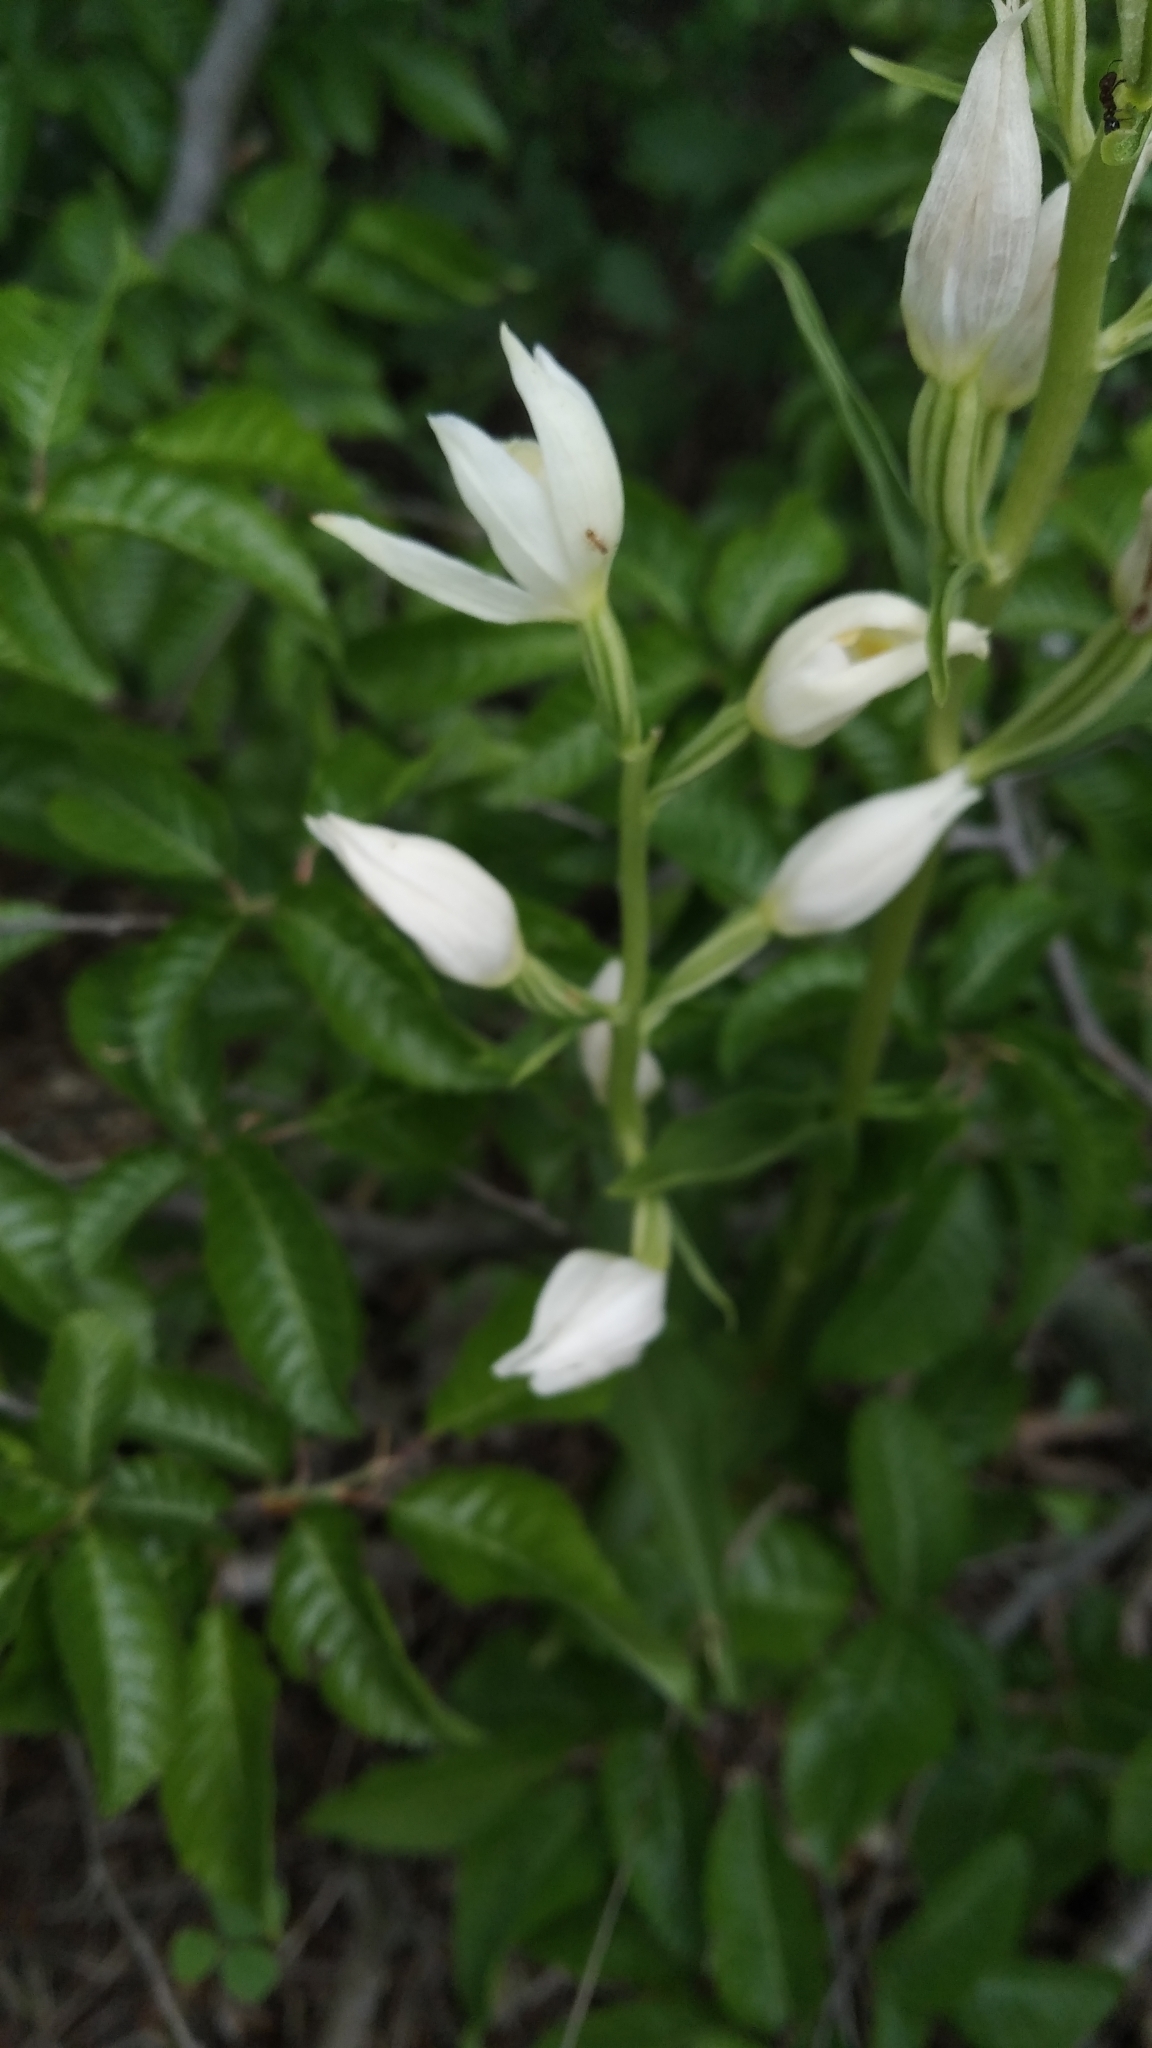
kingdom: Plantae
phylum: Tracheophyta
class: Liliopsida
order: Asparagales
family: Orchidaceae
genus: Cephalanthera
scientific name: Cephalanthera damasonium
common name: White helleborine
